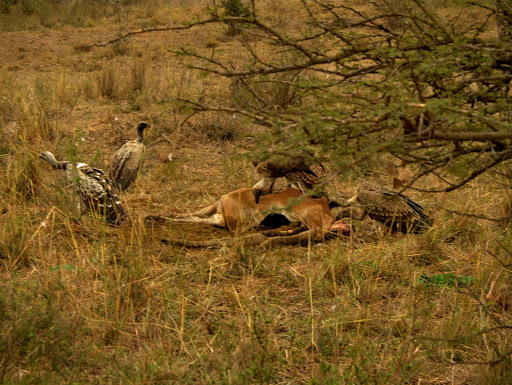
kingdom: Animalia
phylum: Chordata
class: Aves
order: Accipitriformes
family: Accipitridae
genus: Gyps
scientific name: Gyps africanus
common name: White-backed vulture
